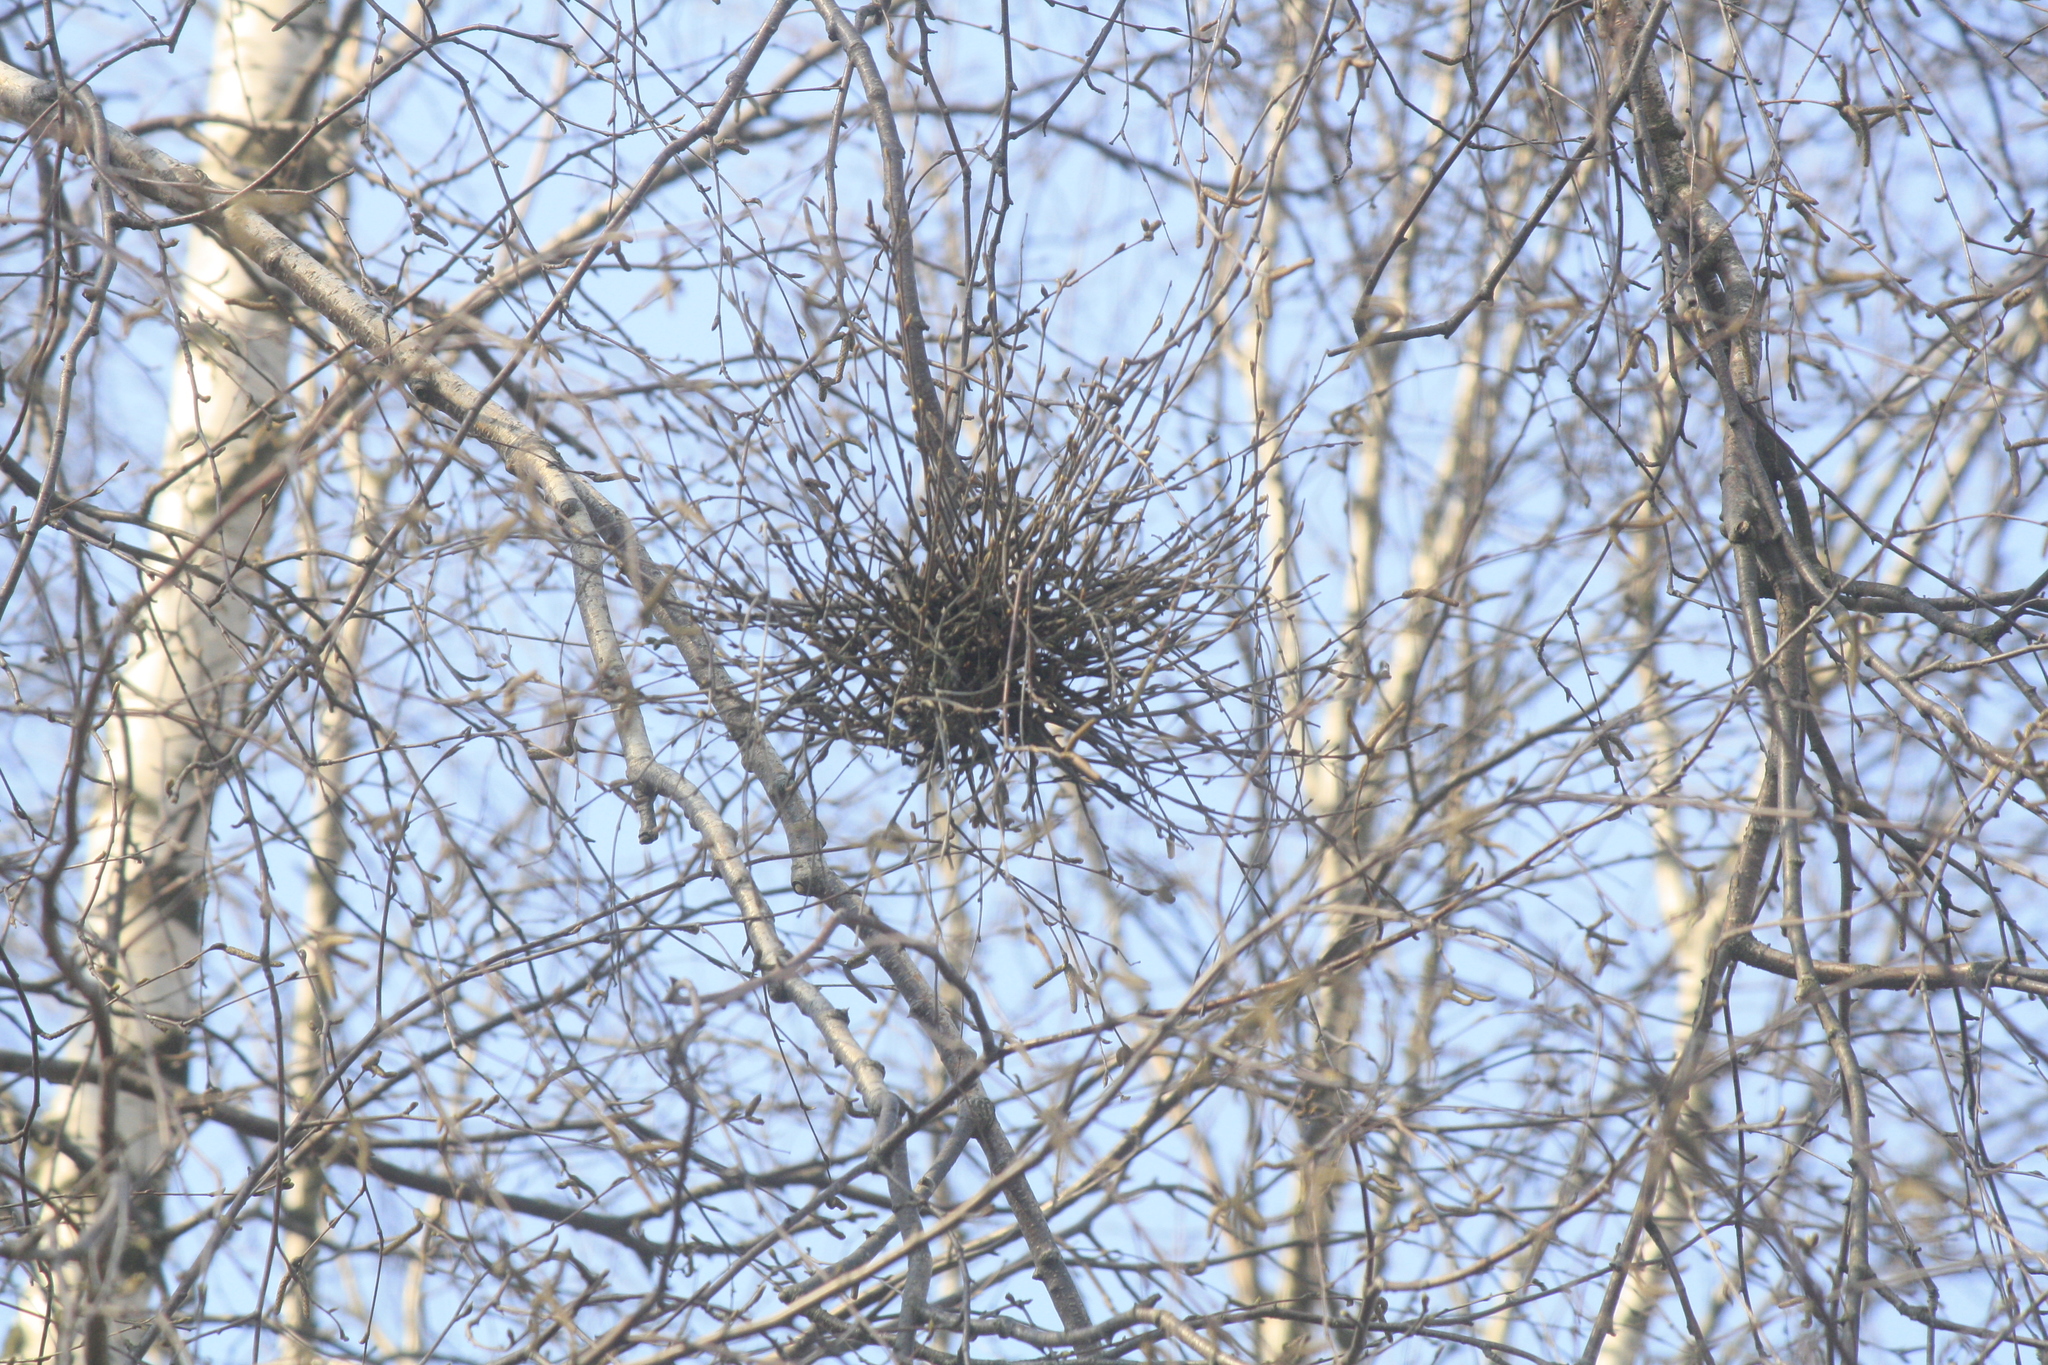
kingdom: Fungi
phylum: Ascomycota
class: Taphrinomycetes
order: Taphrinales
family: Taphrinaceae
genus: Taphrina
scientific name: Taphrina betulina
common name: Birch besom
